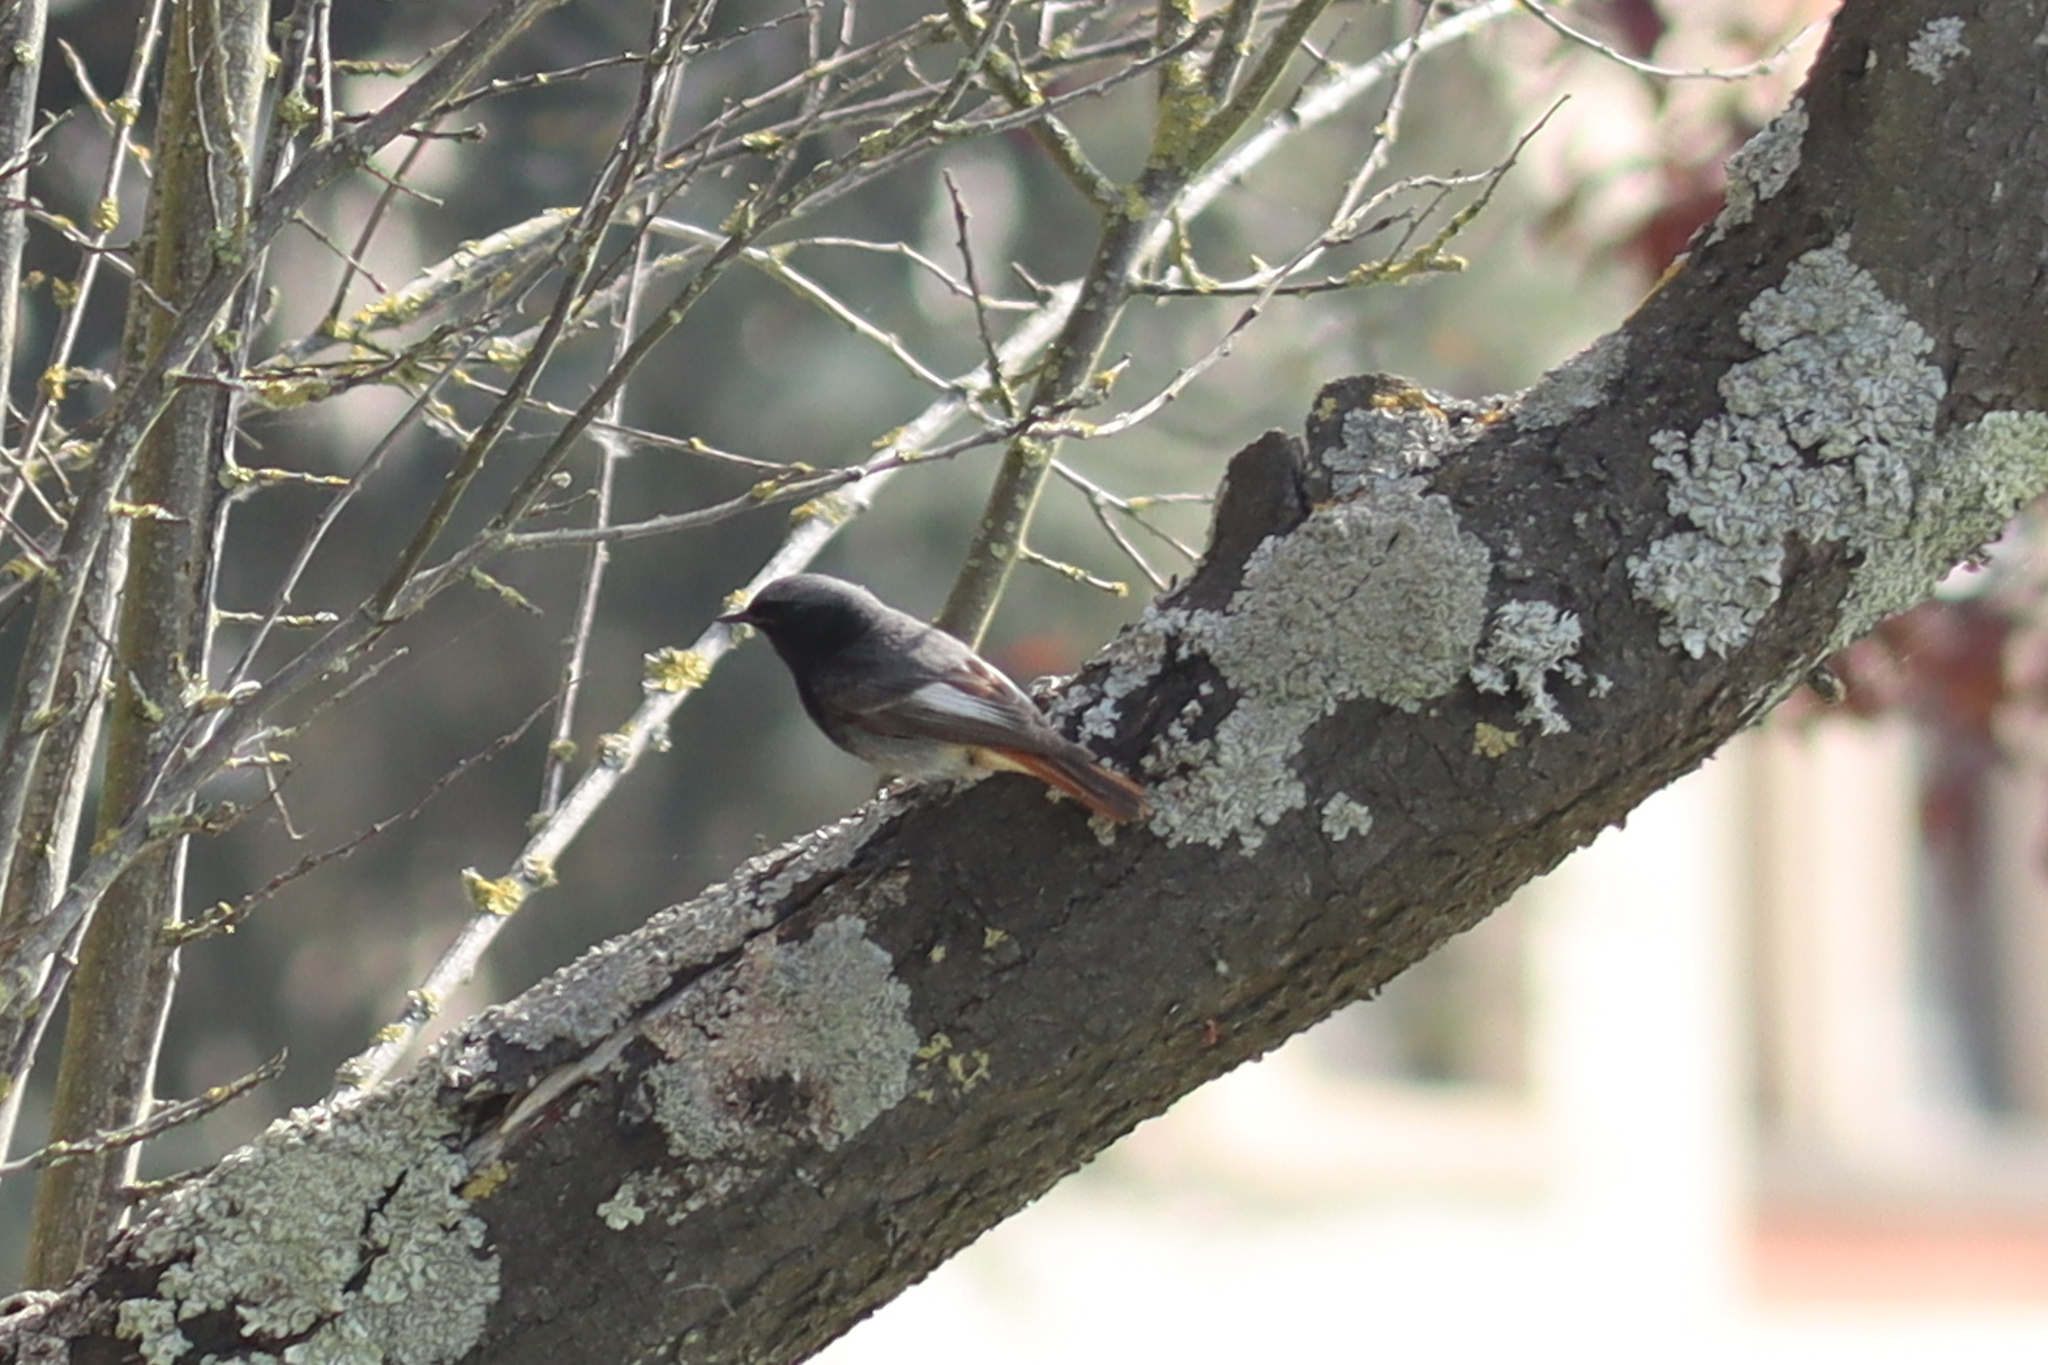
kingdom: Animalia
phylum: Chordata
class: Aves
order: Passeriformes
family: Muscicapidae
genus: Phoenicurus
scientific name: Phoenicurus ochruros
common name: Black redstart
